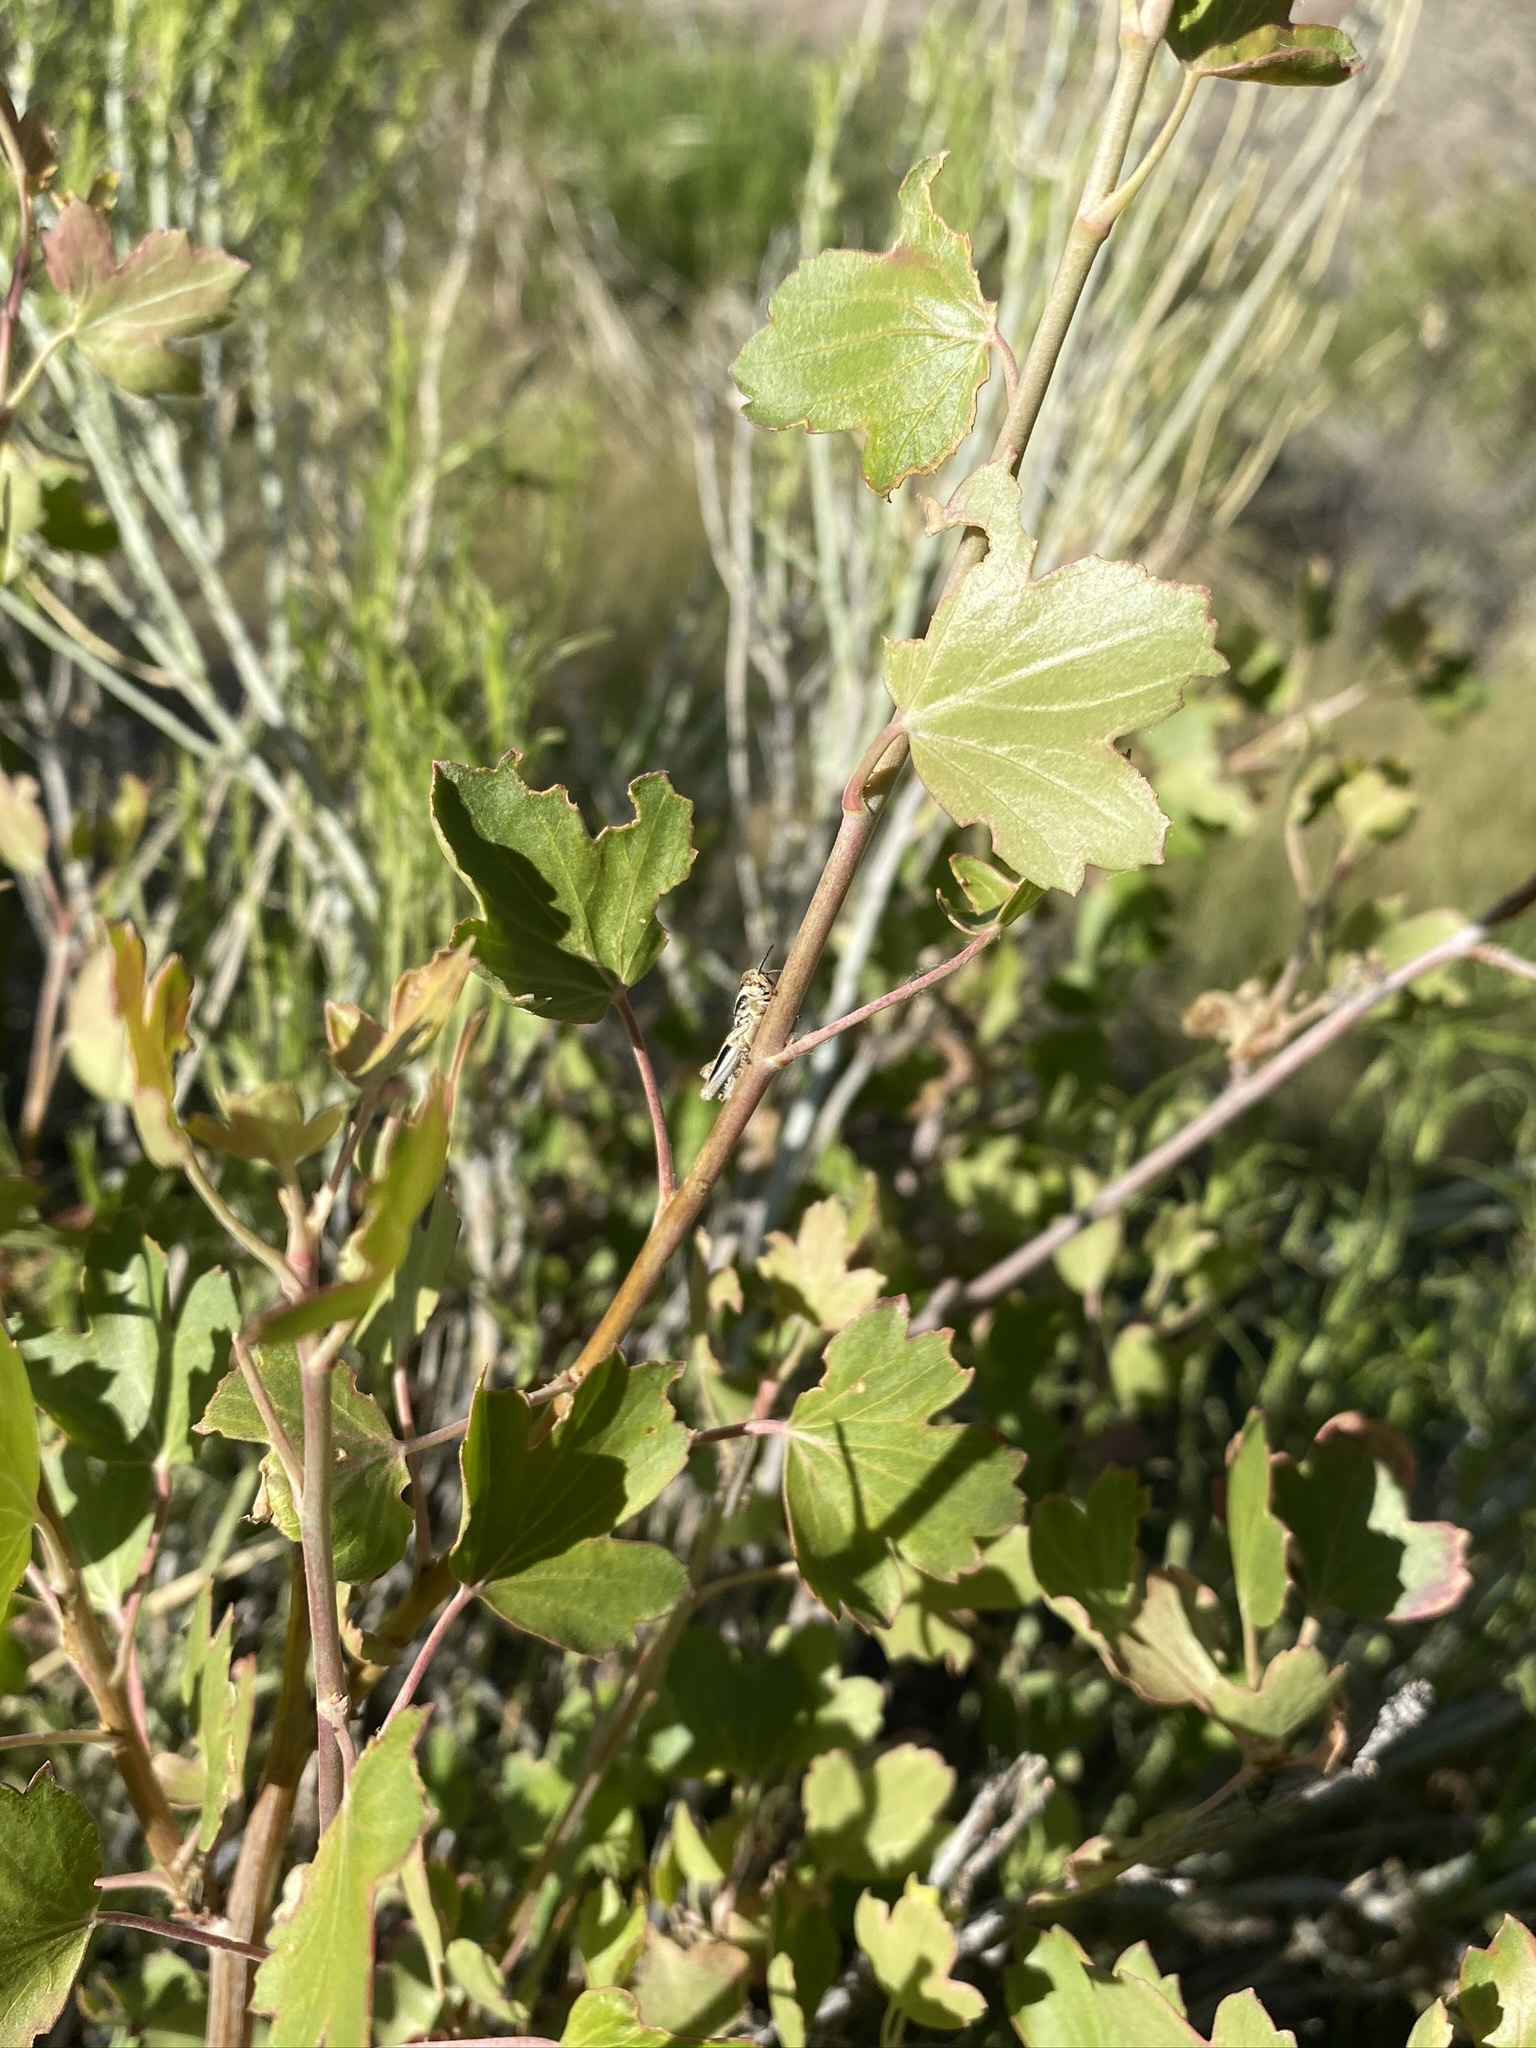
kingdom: Plantae
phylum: Tracheophyta
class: Magnoliopsida
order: Saxifragales
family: Grossulariaceae
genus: Ribes
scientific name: Ribes aureum
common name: Golden currant
